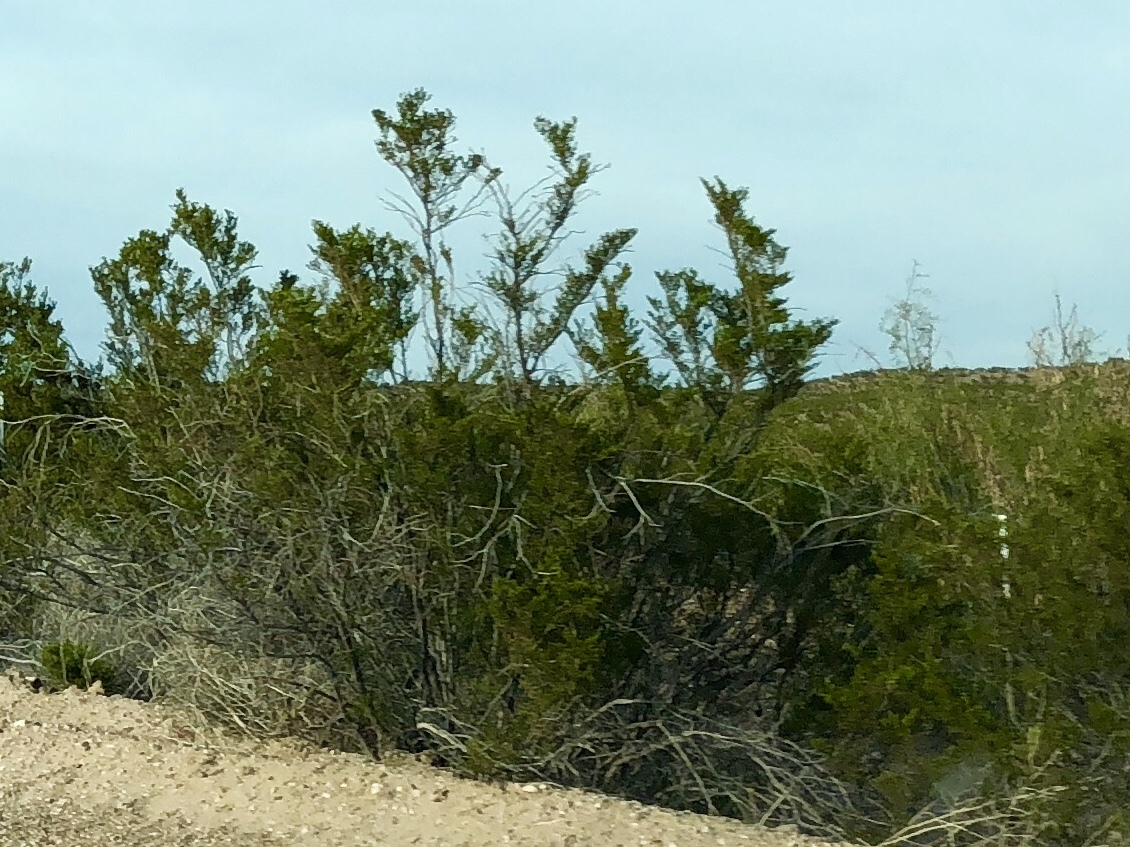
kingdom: Plantae
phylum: Tracheophyta
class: Magnoliopsida
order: Zygophyllales
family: Zygophyllaceae
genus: Larrea
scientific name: Larrea tridentata
